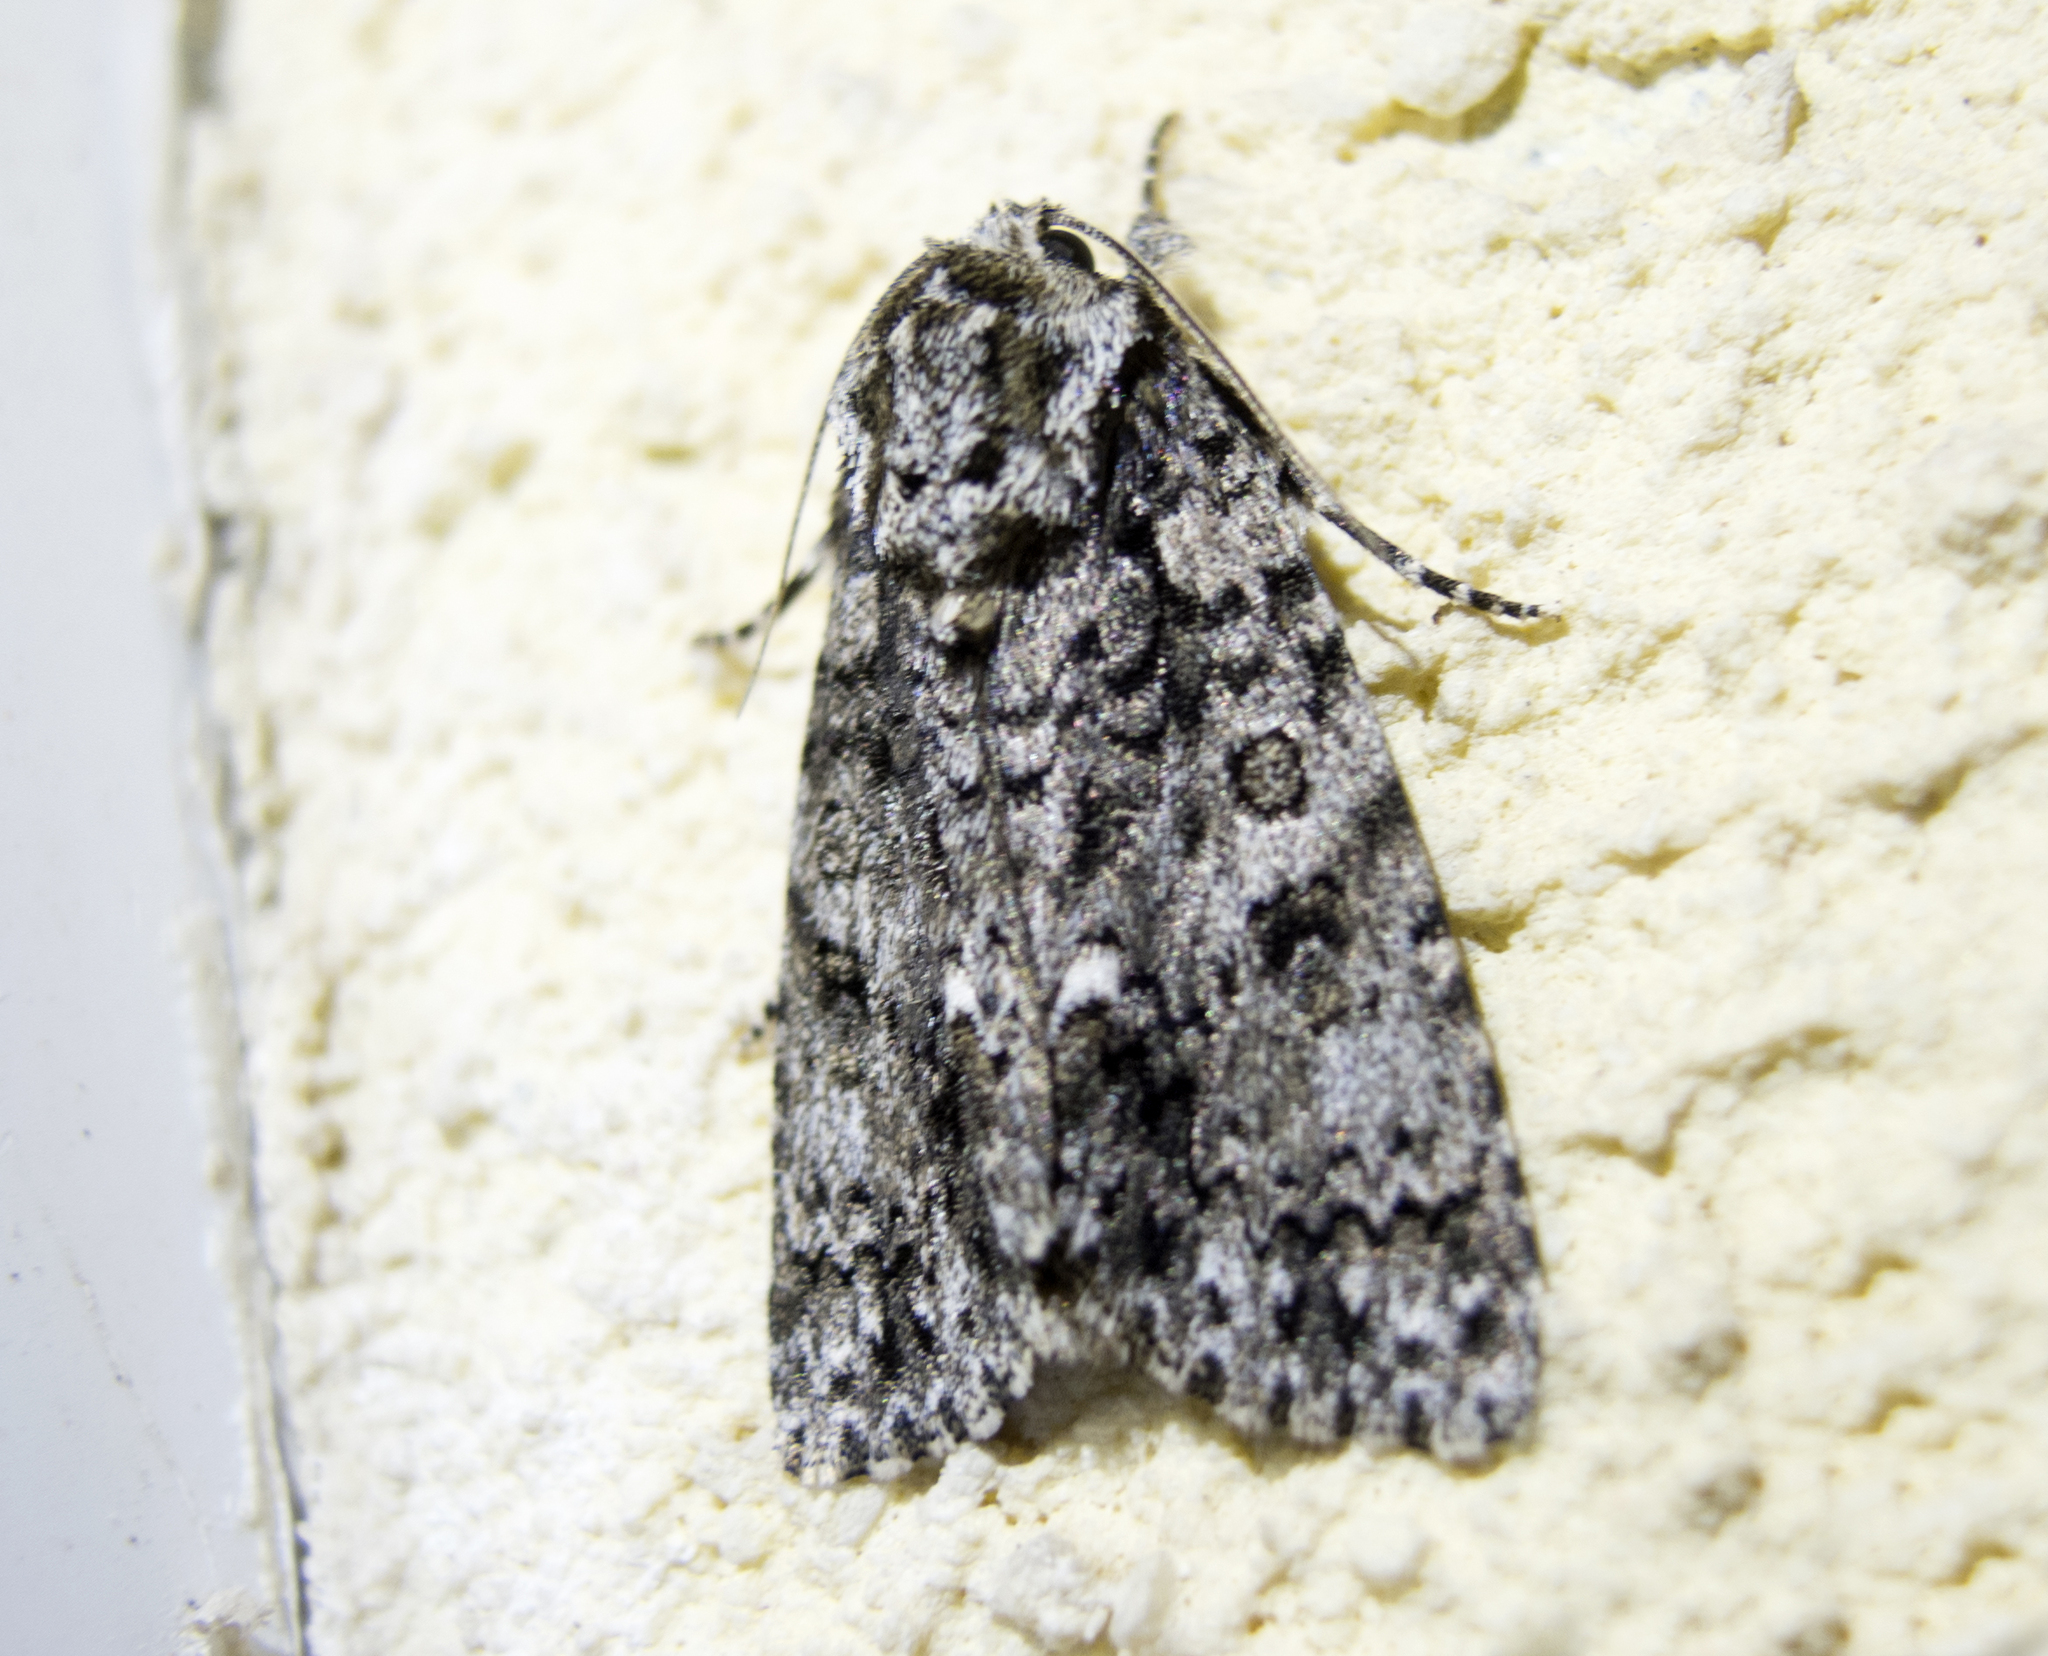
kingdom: Animalia
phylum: Arthropoda
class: Insecta
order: Lepidoptera
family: Noctuidae
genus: Acronicta
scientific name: Acronicta rumicis
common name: Knot grass
